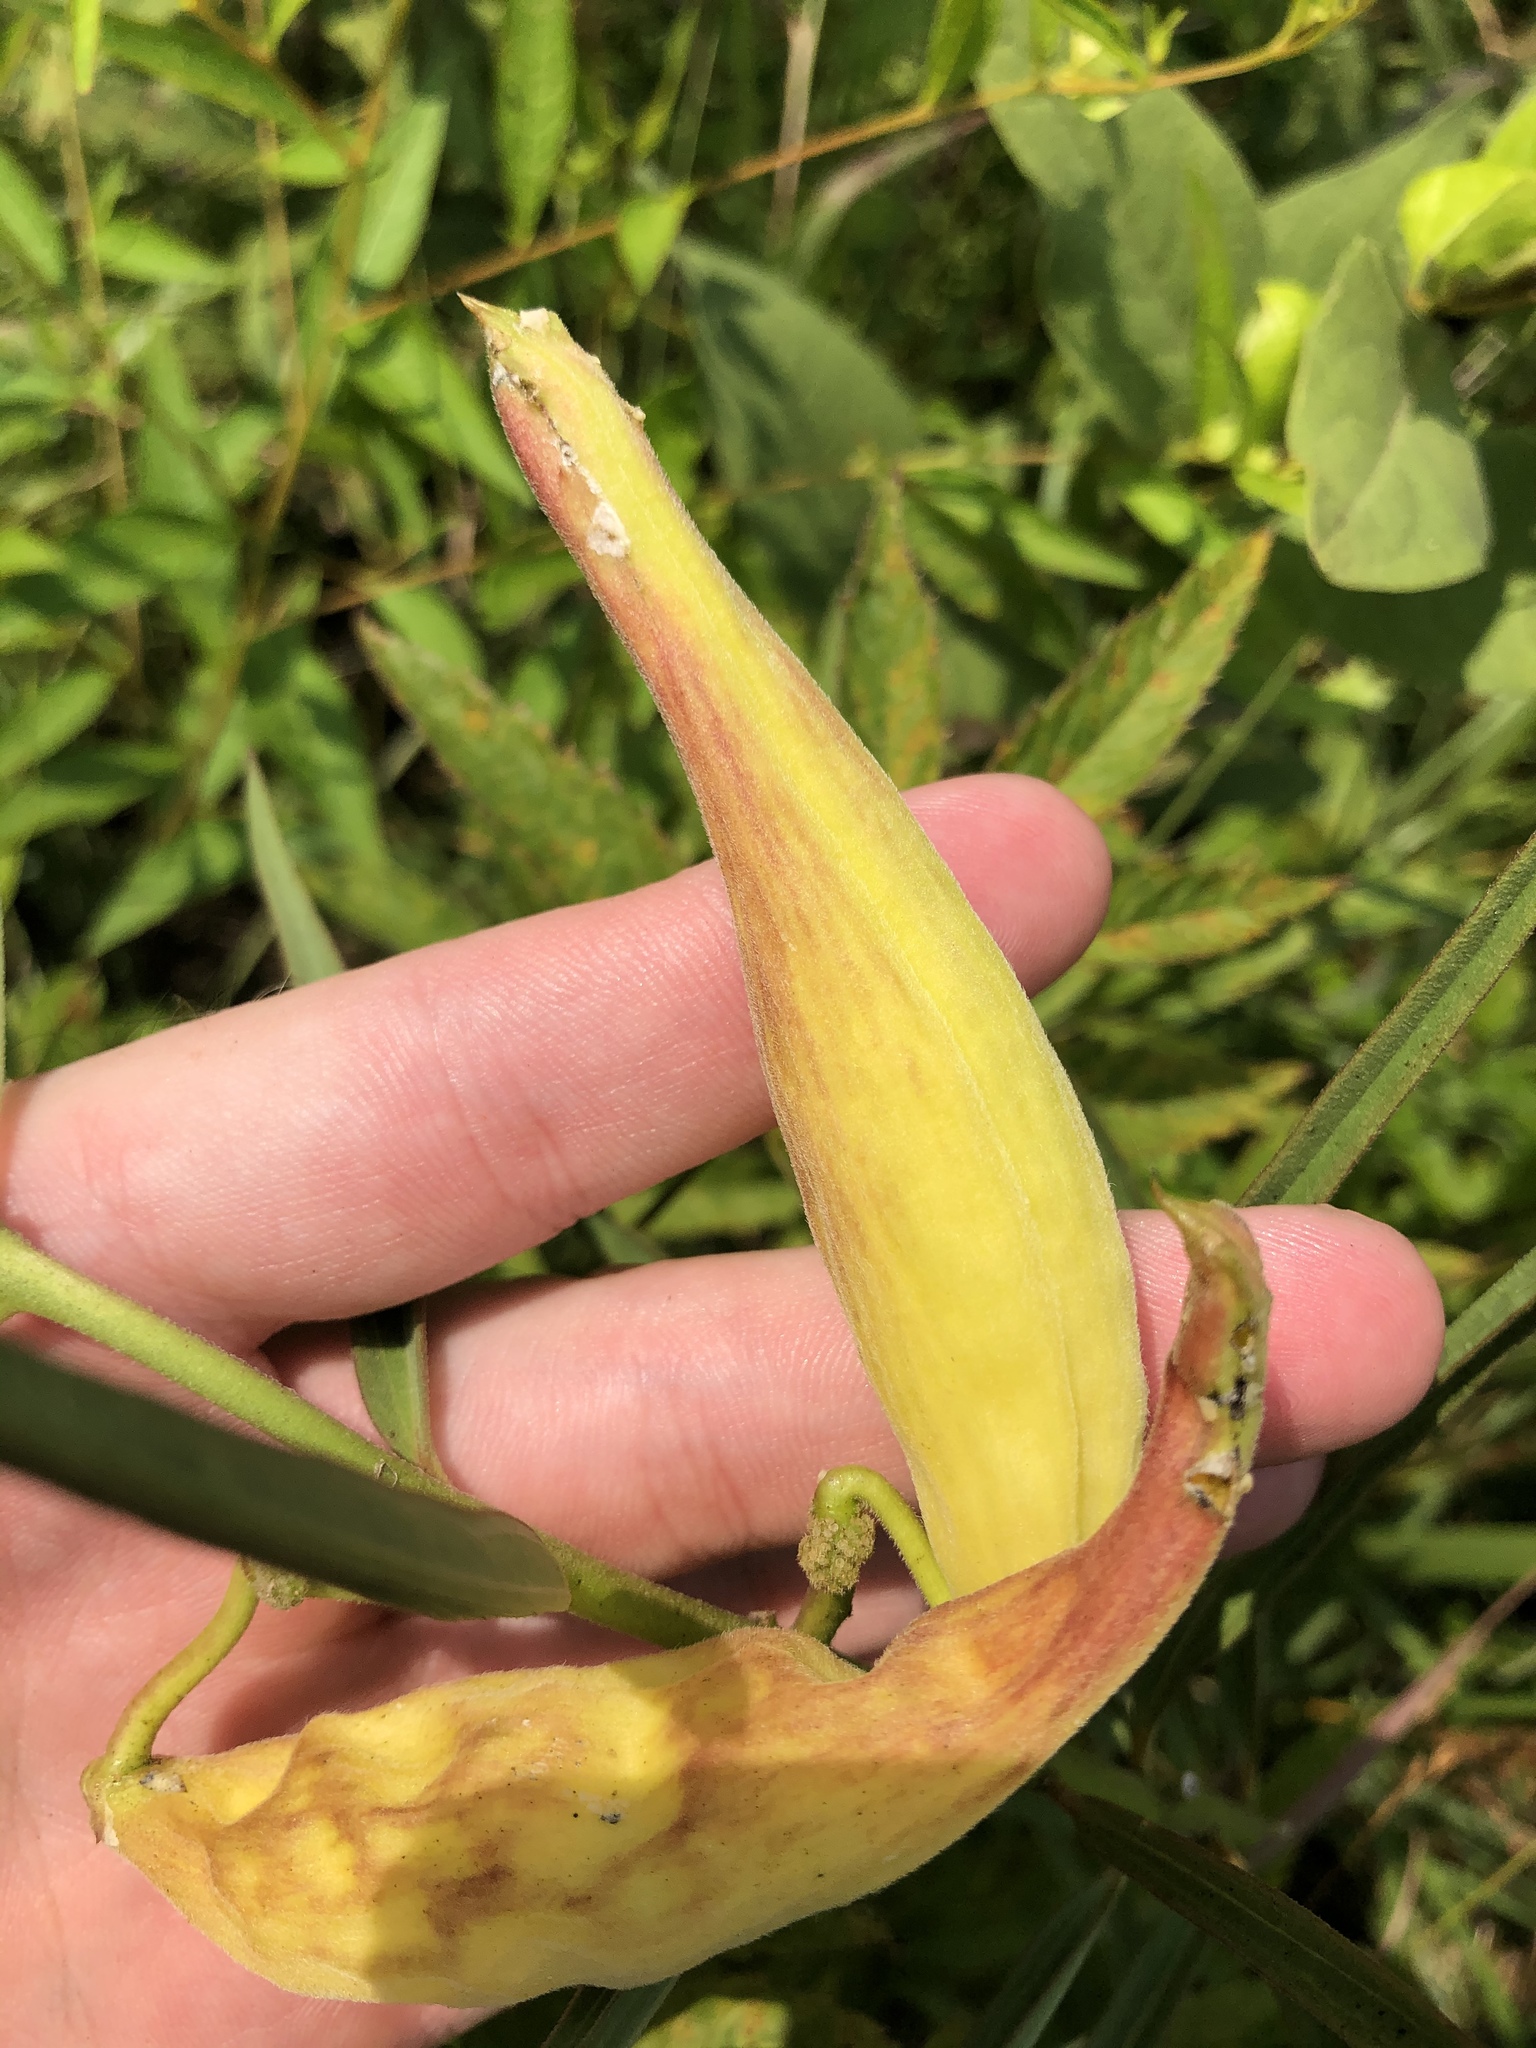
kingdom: Plantae
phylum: Tracheophyta
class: Magnoliopsida
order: Gentianales
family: Apocynaceae
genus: Asclepias
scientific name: Asclepias hirtella
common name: Prairie milkweed
